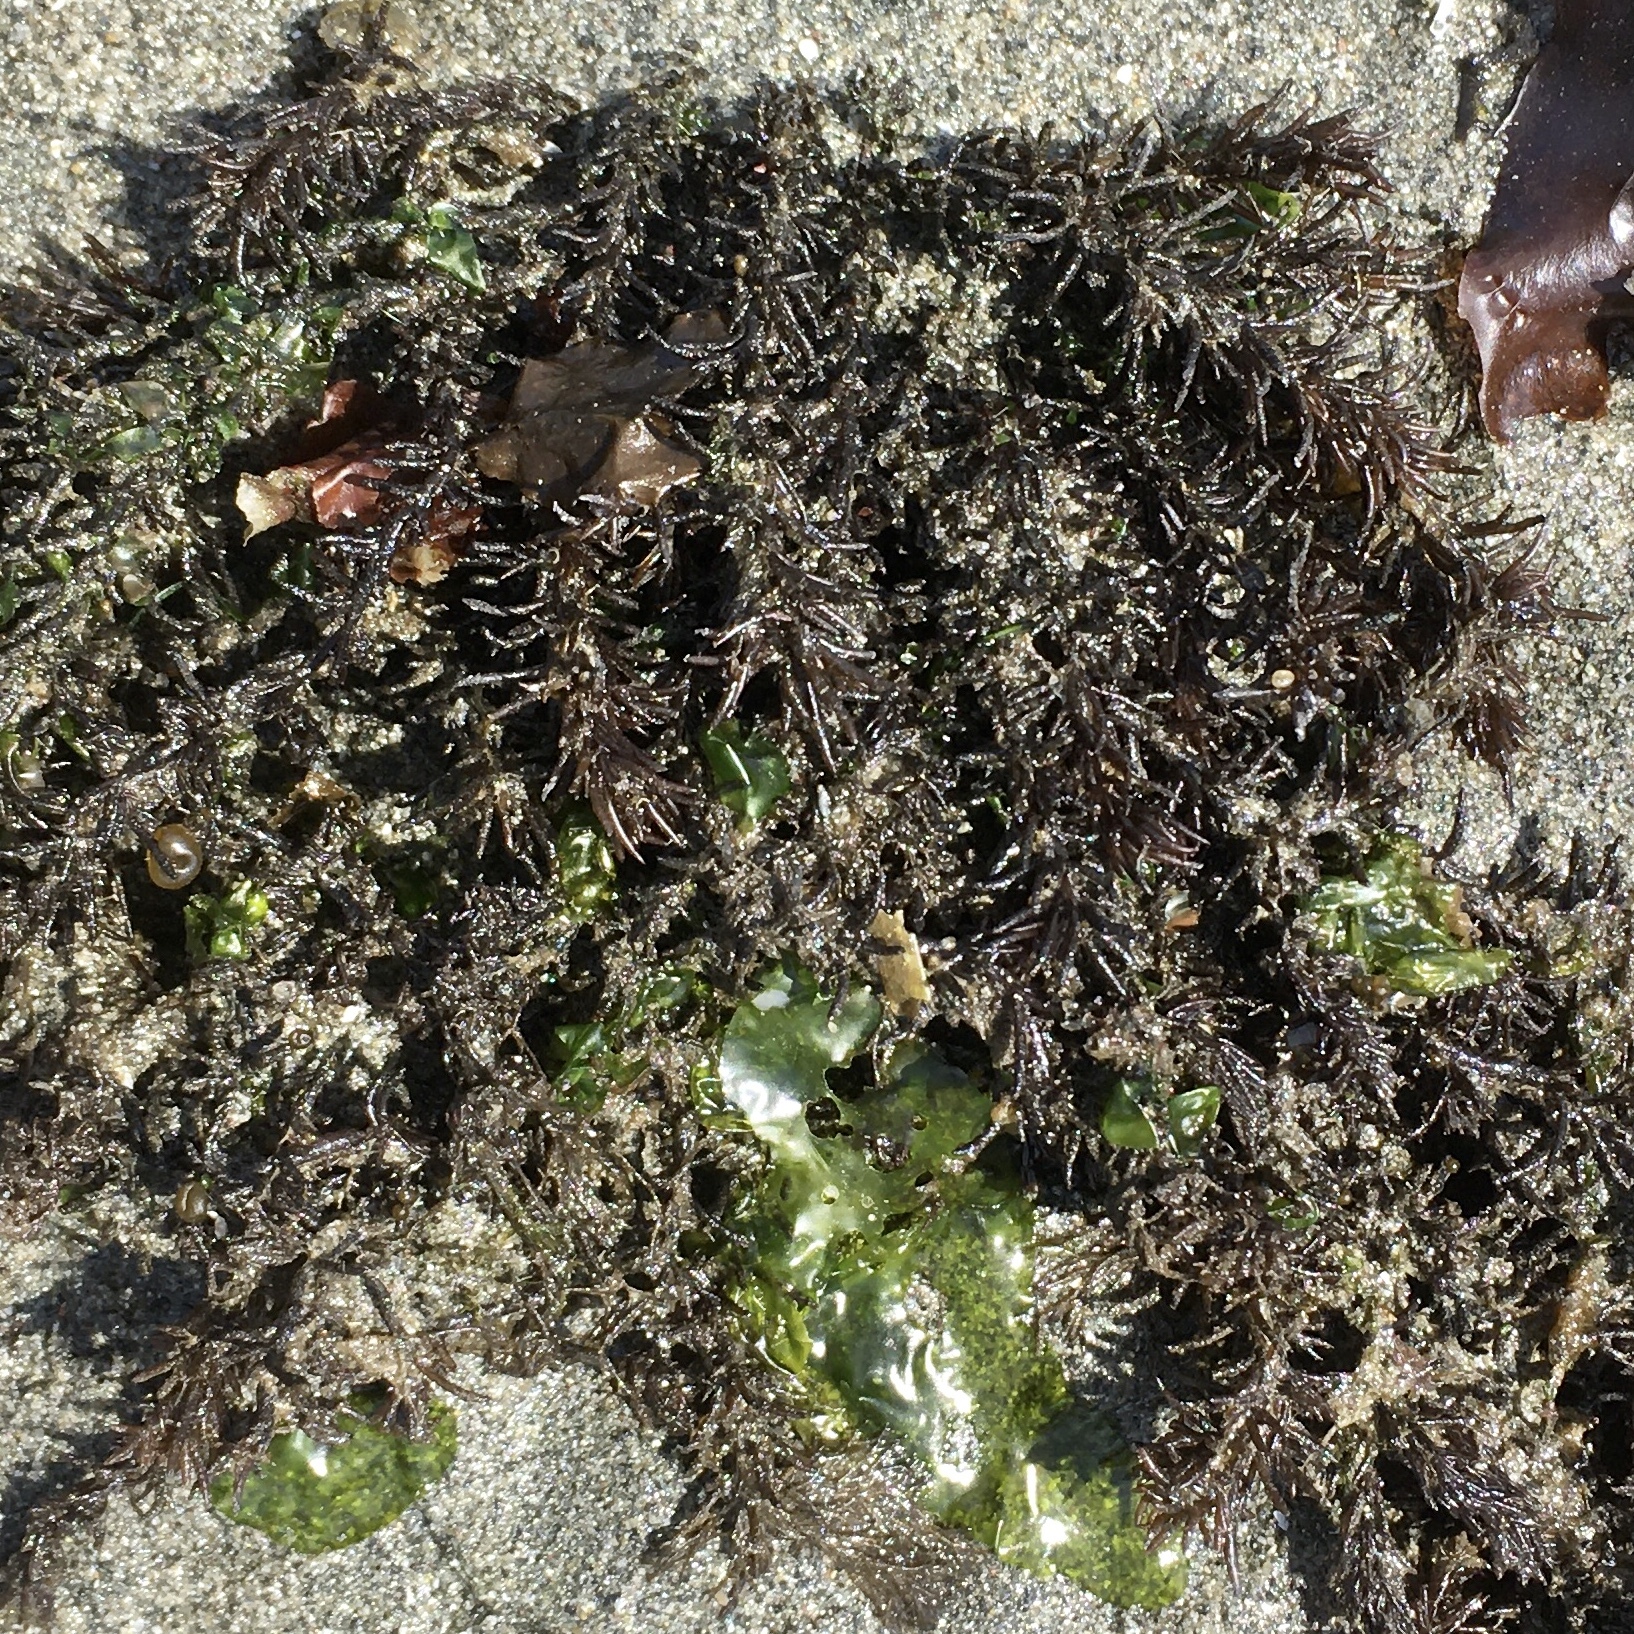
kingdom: Plantae
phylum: Rhodophyta
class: Florideophyceae
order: Ceramiales
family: Rhodomelaceae
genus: Neorhodomela
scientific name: Neorhodomela larix
